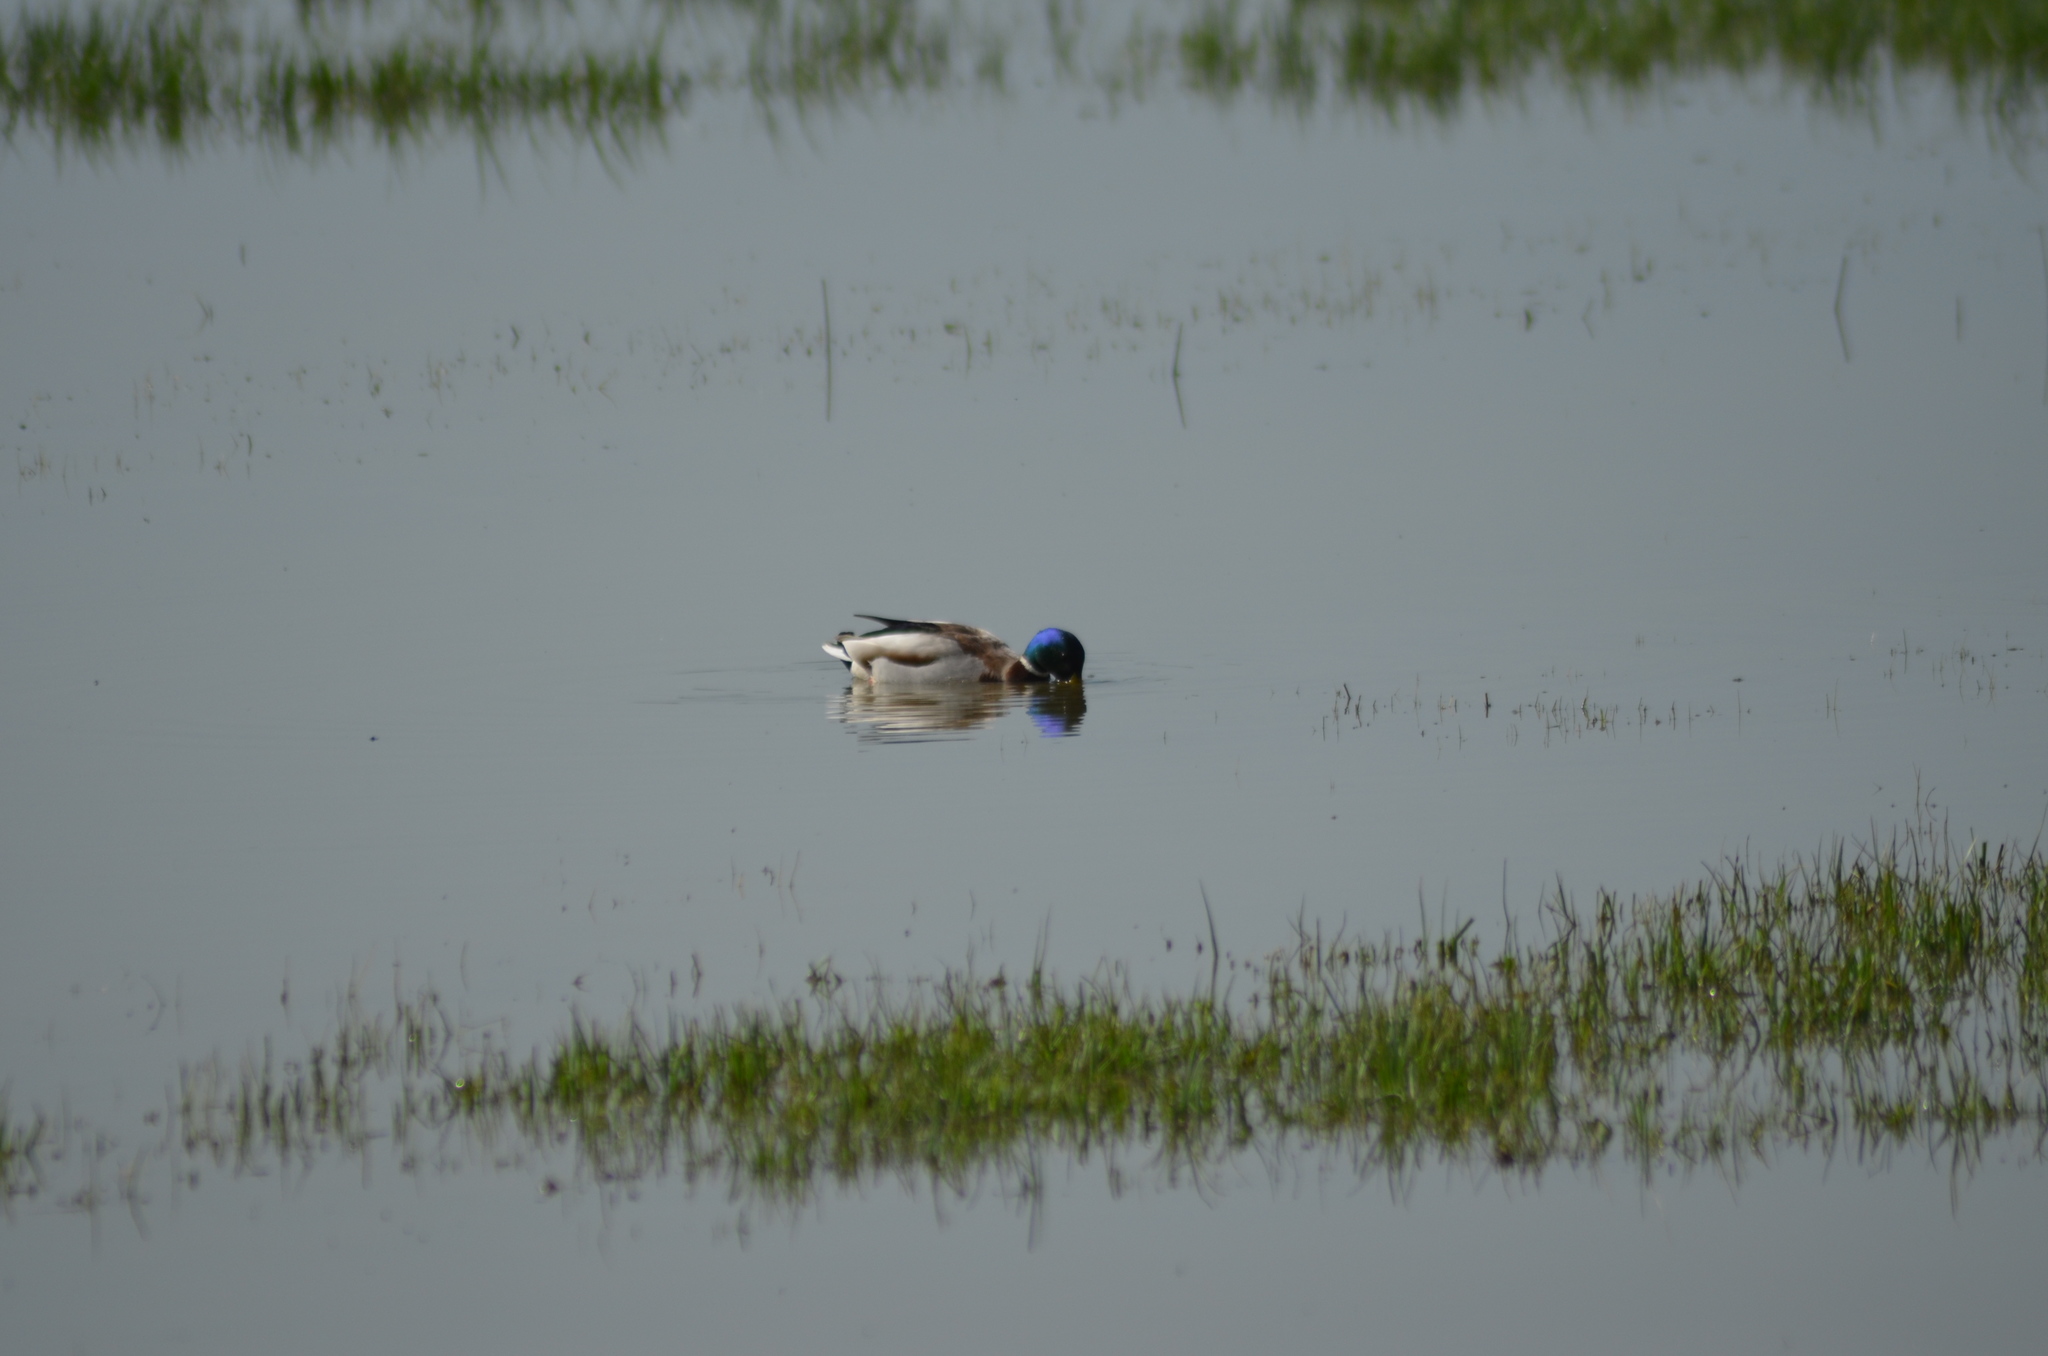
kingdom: Animalia
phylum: Chordata
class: Aves
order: Anseriformes
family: Anatidae
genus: Anas
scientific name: Anas platyrhynchos
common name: Mallard
